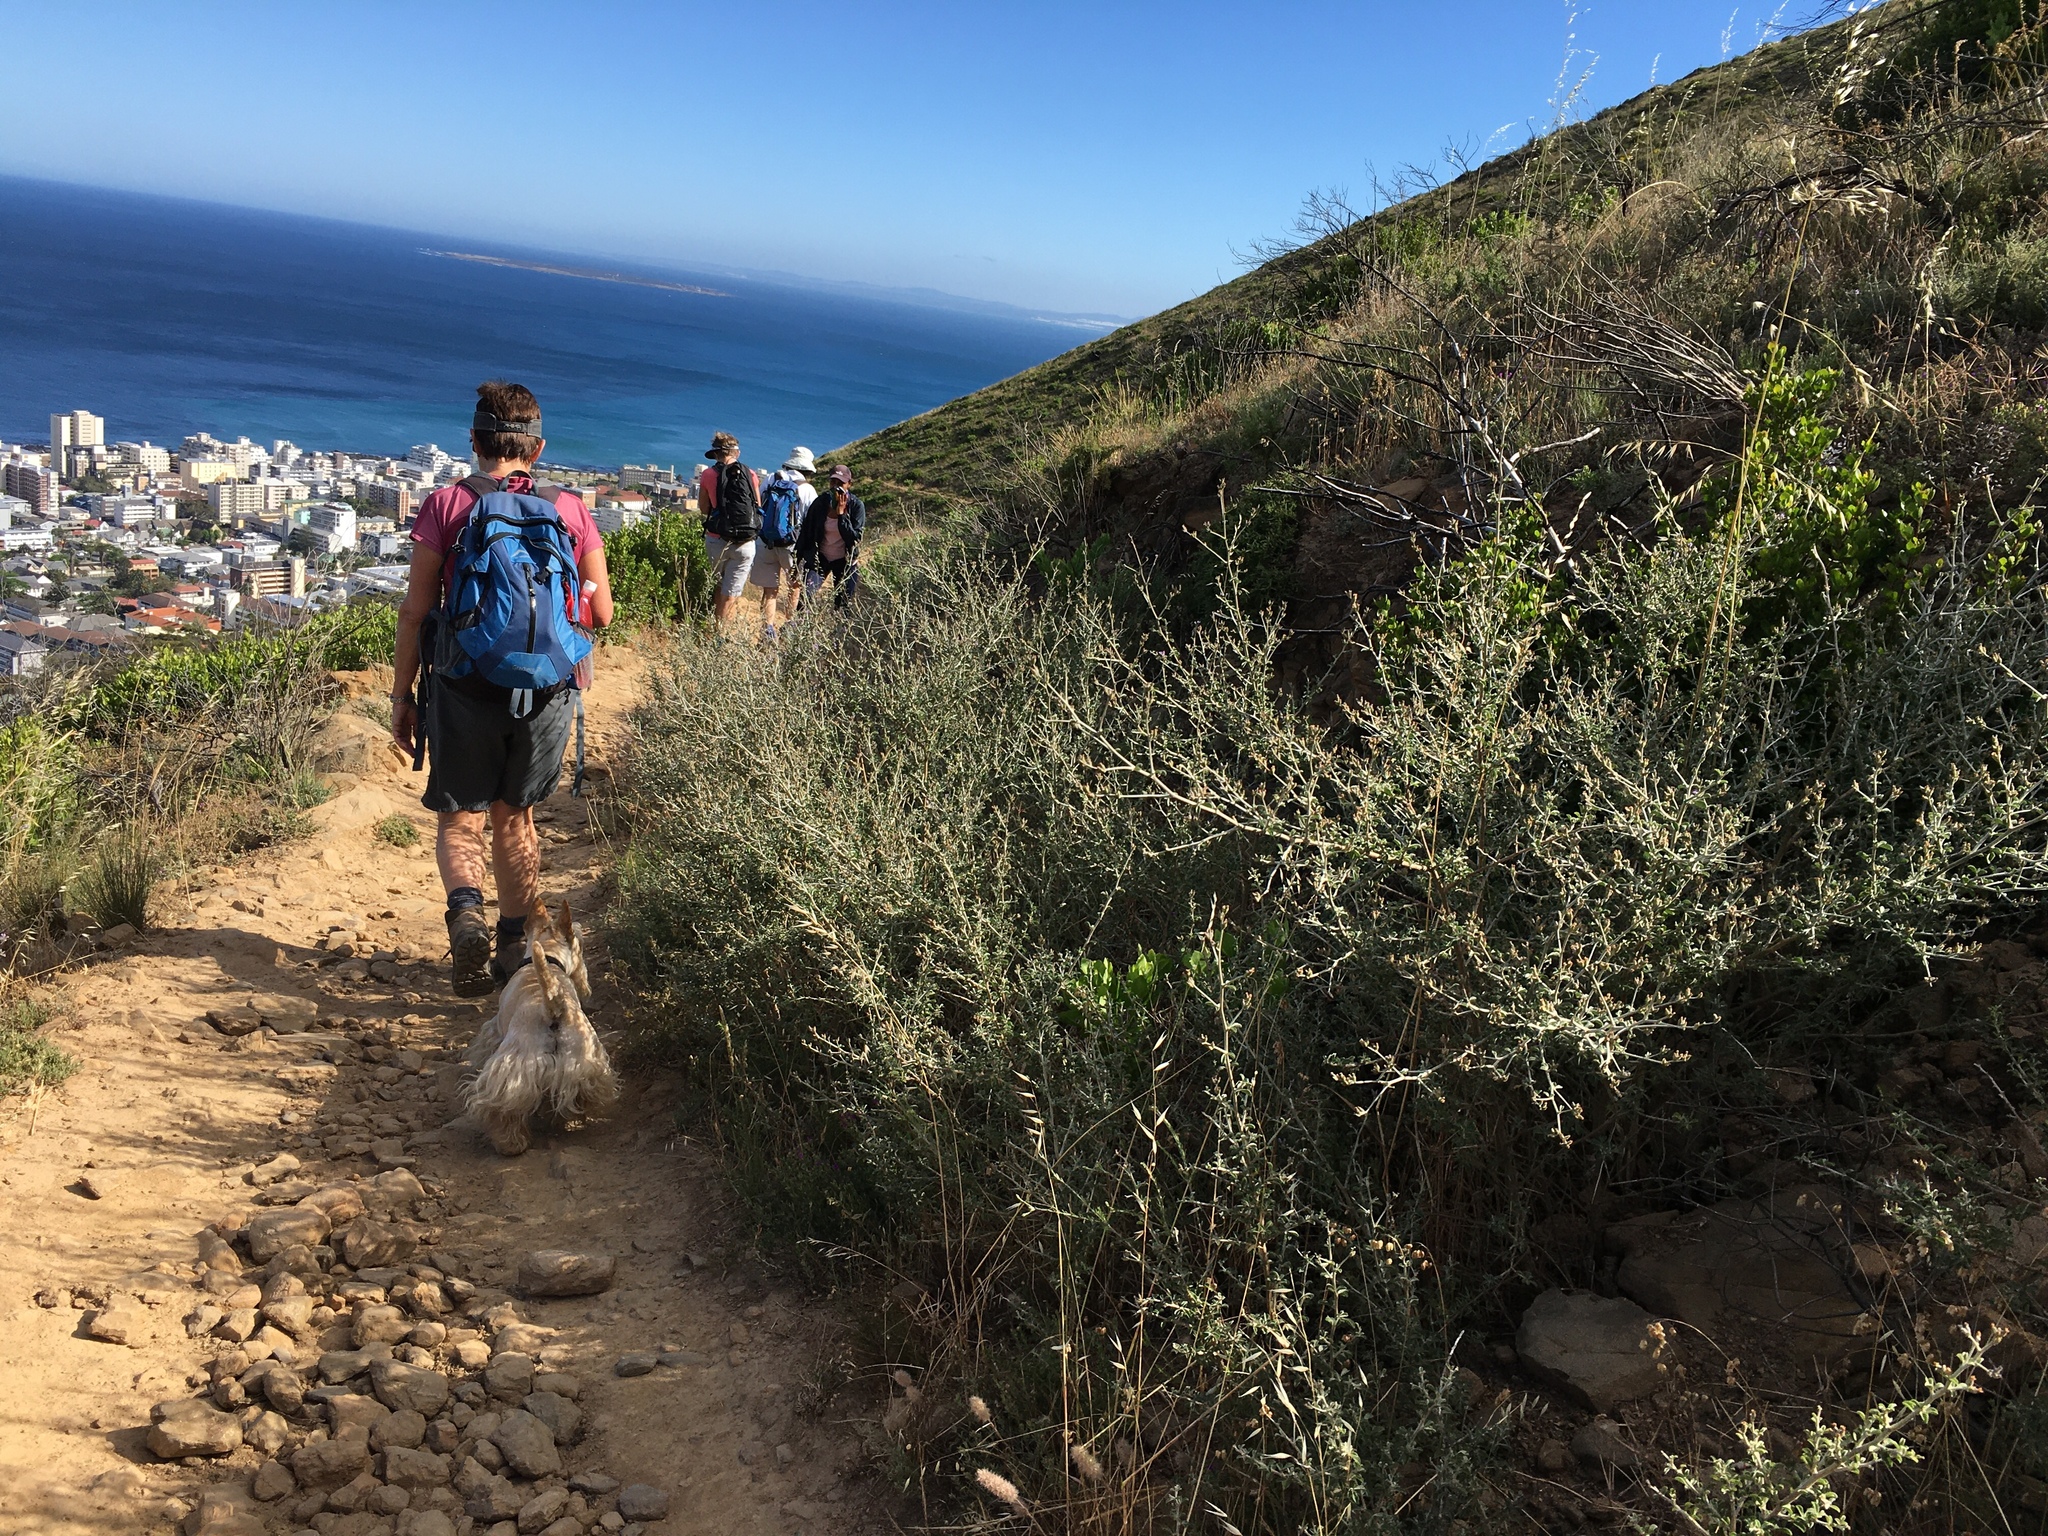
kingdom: Plantae
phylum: Tracheophyta
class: Magnoliopsida
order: Fabales
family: Fabaceae
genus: Psoralea
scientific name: Psoralea hirta
